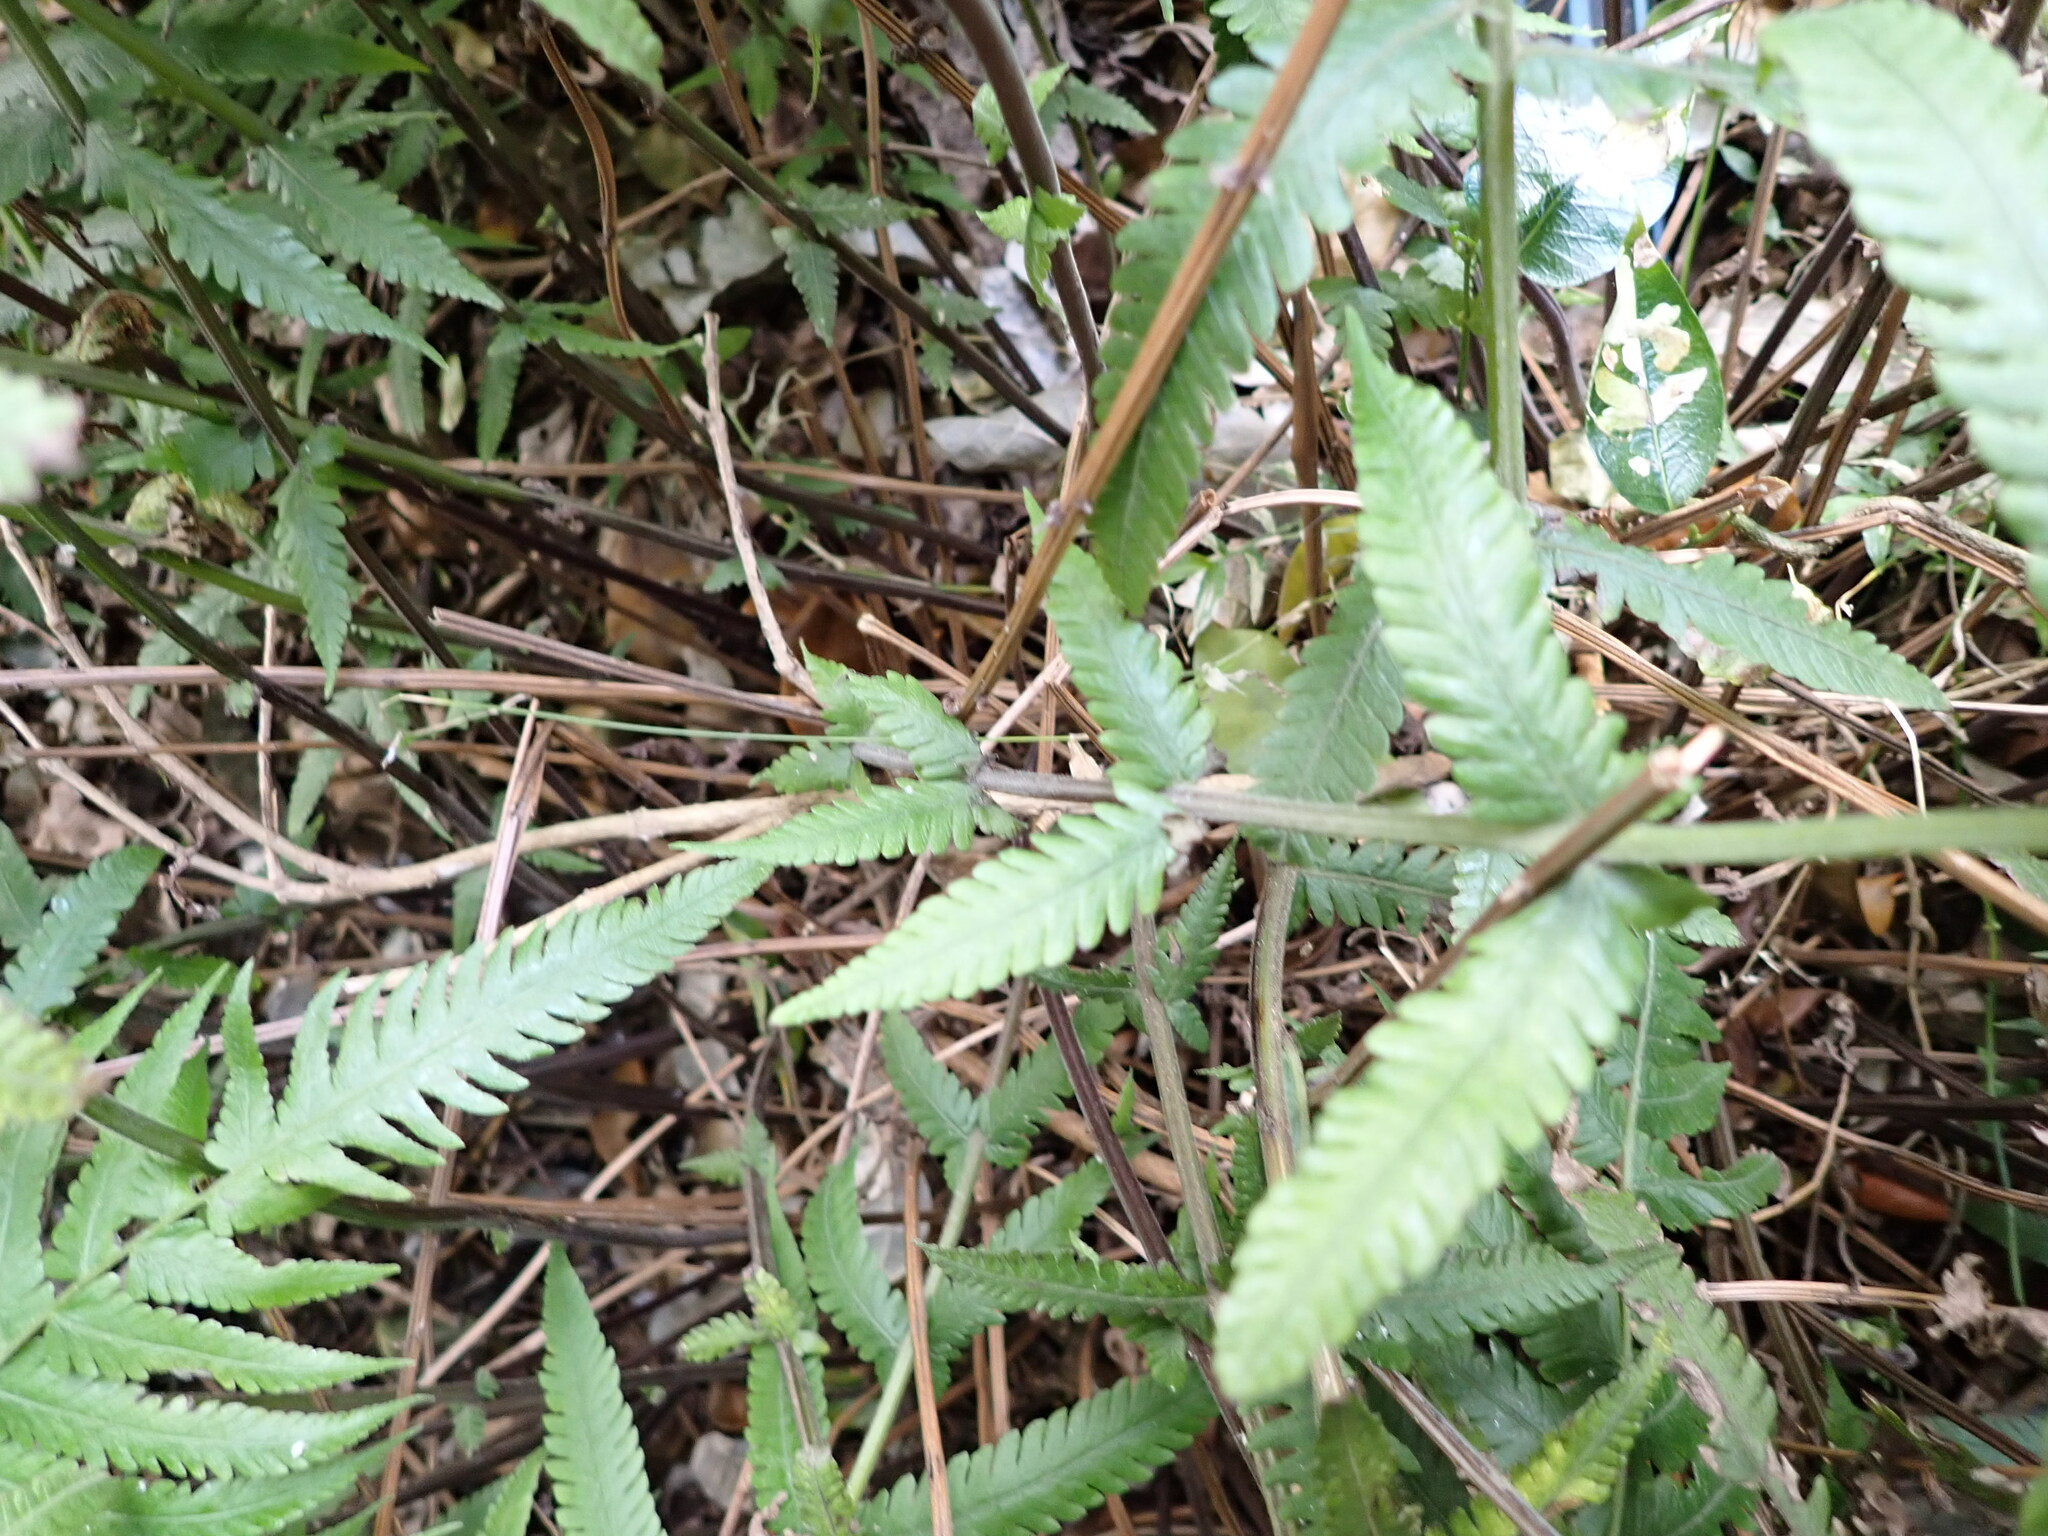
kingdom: Plantae
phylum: Tracheophyta
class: Polypodiopsida
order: Polypodiales
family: Thelypteridaceae
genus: Christella
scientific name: Christella dentata
